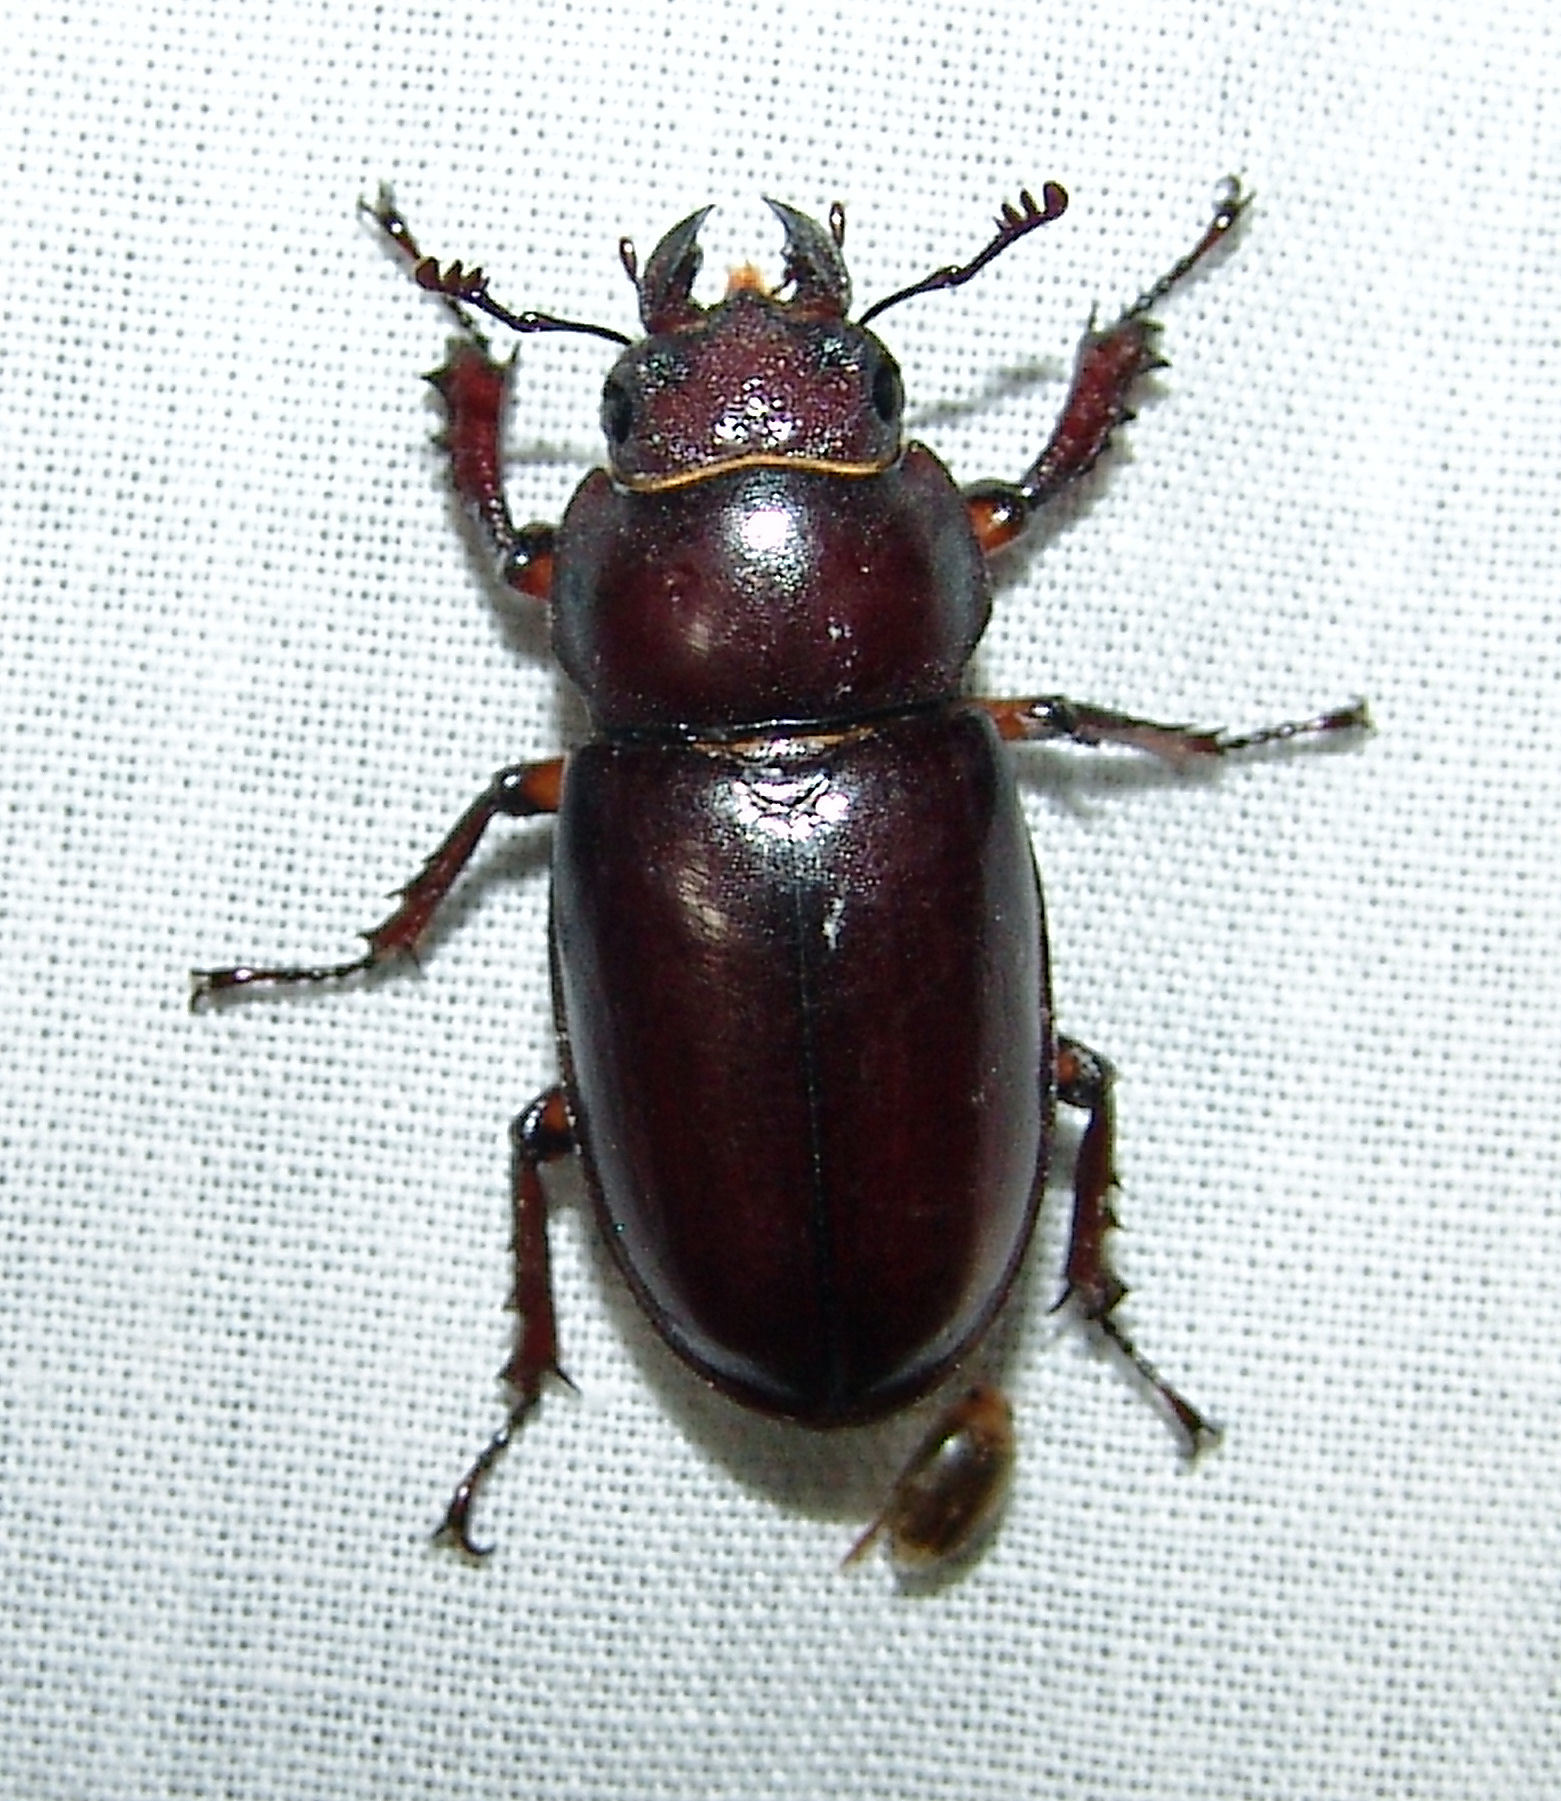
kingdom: Animalia
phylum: Arthropoda
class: Insecta
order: Coleoptera
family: Lucanidae
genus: Lucanus
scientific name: Lucanus capreolus
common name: Stag beetle
